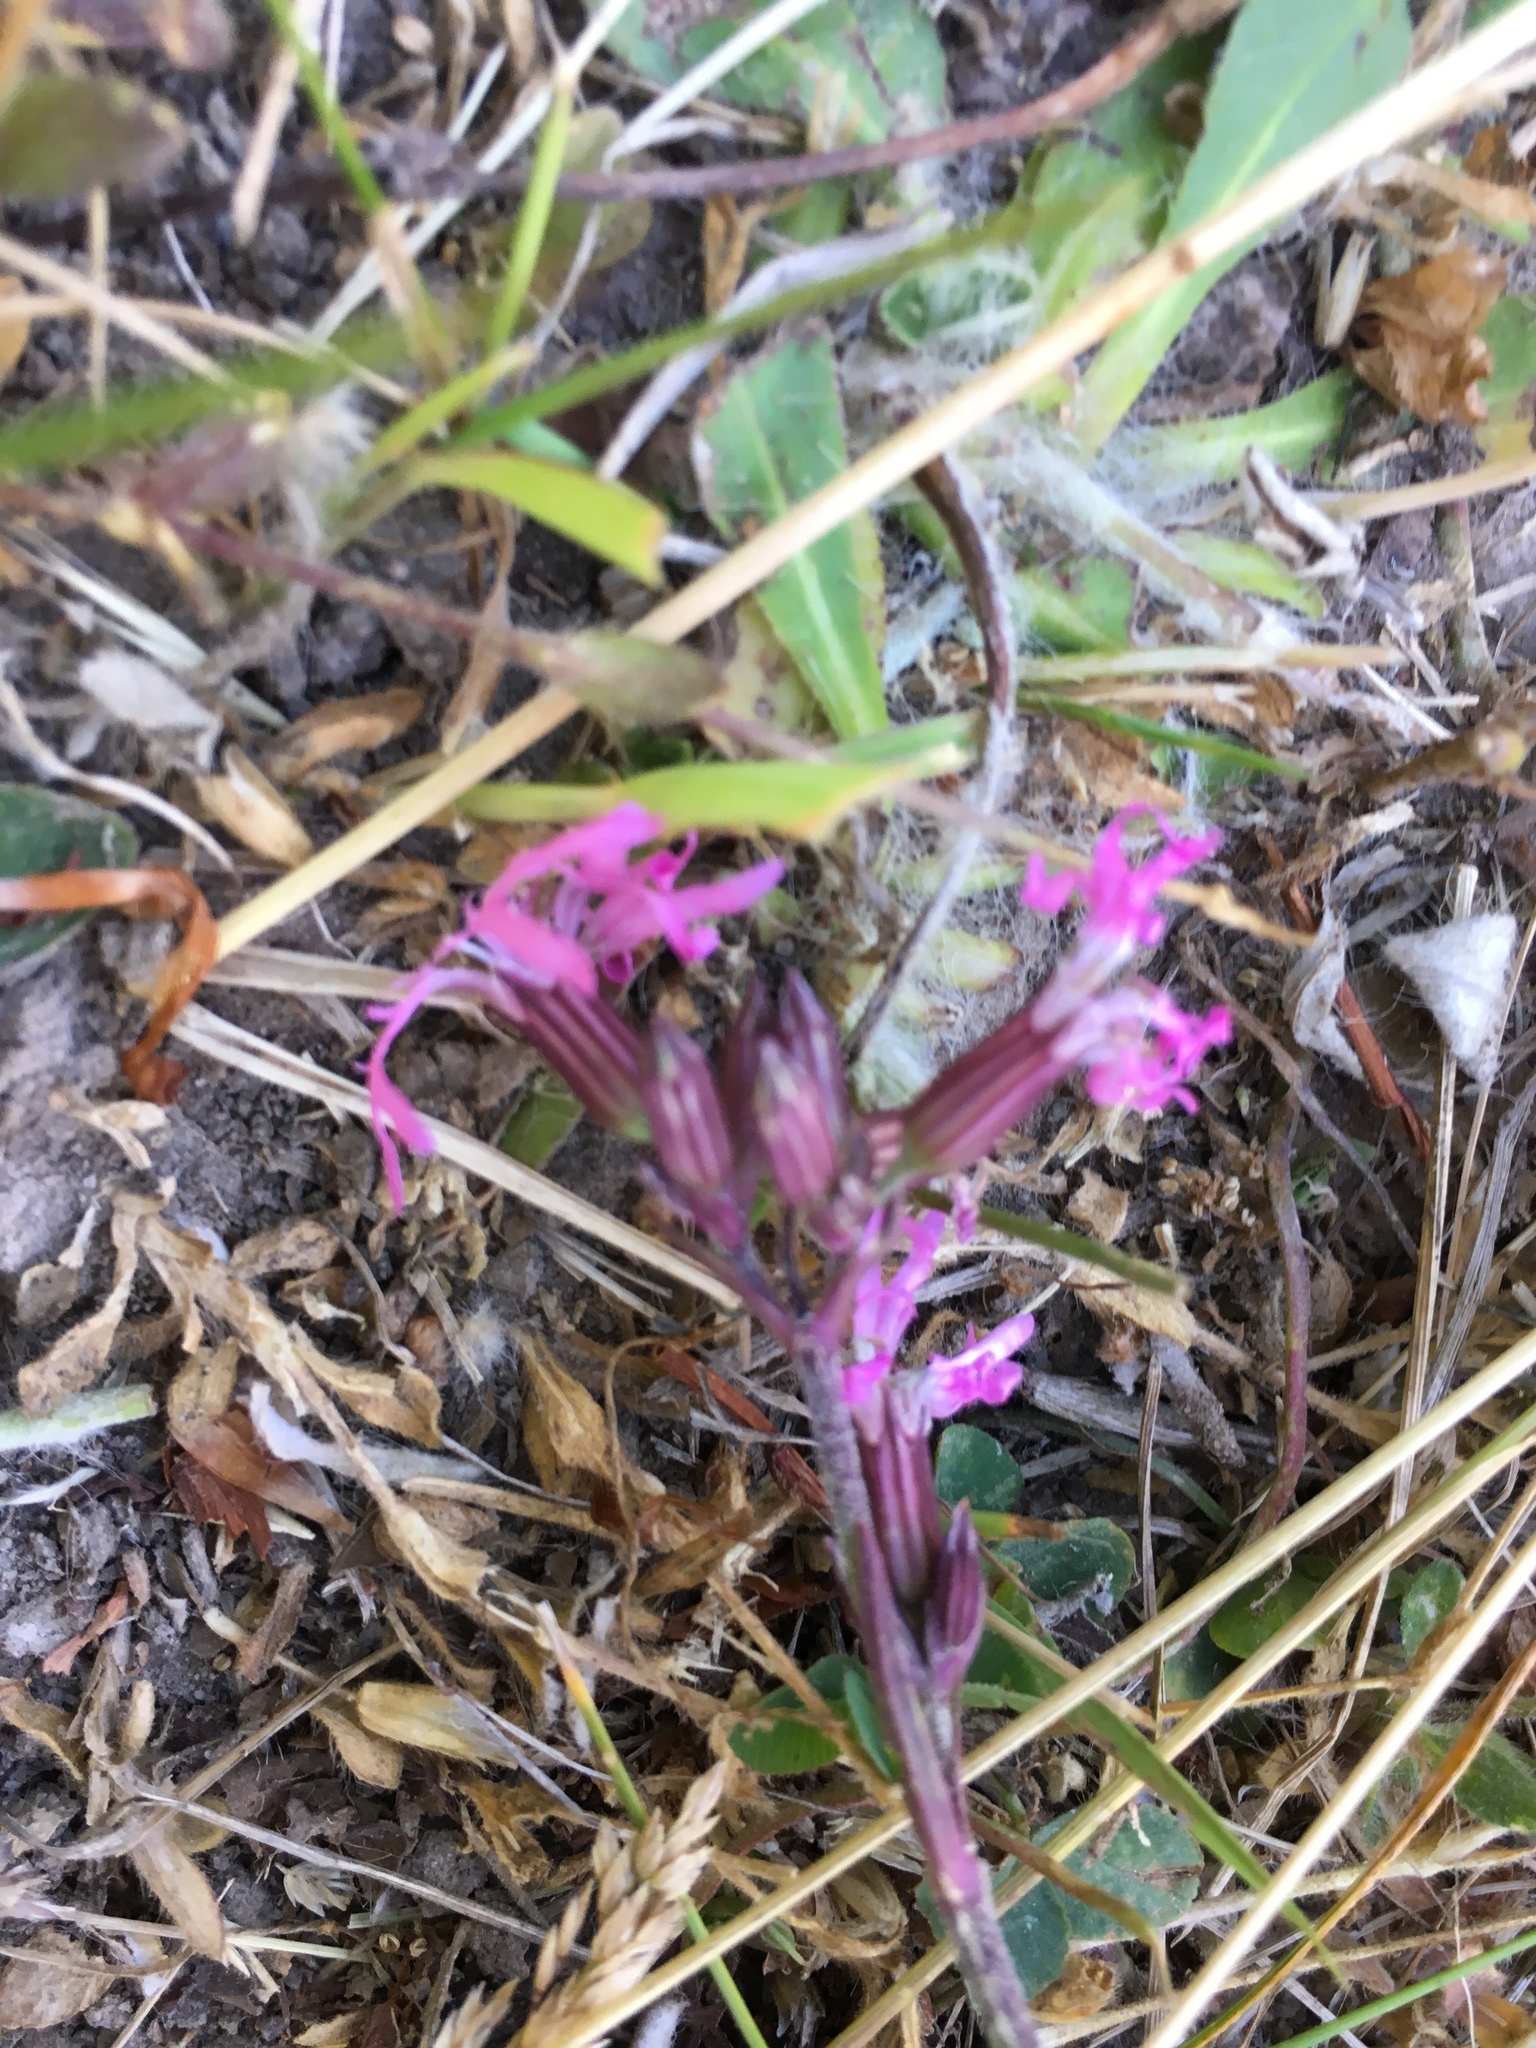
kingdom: Plantae
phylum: Tracheophyta
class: Magnoliopsida
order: Caryophyllales
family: Caryophyllaceae
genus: Silene
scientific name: Silene flos-cuculi
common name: Ragged-robin
